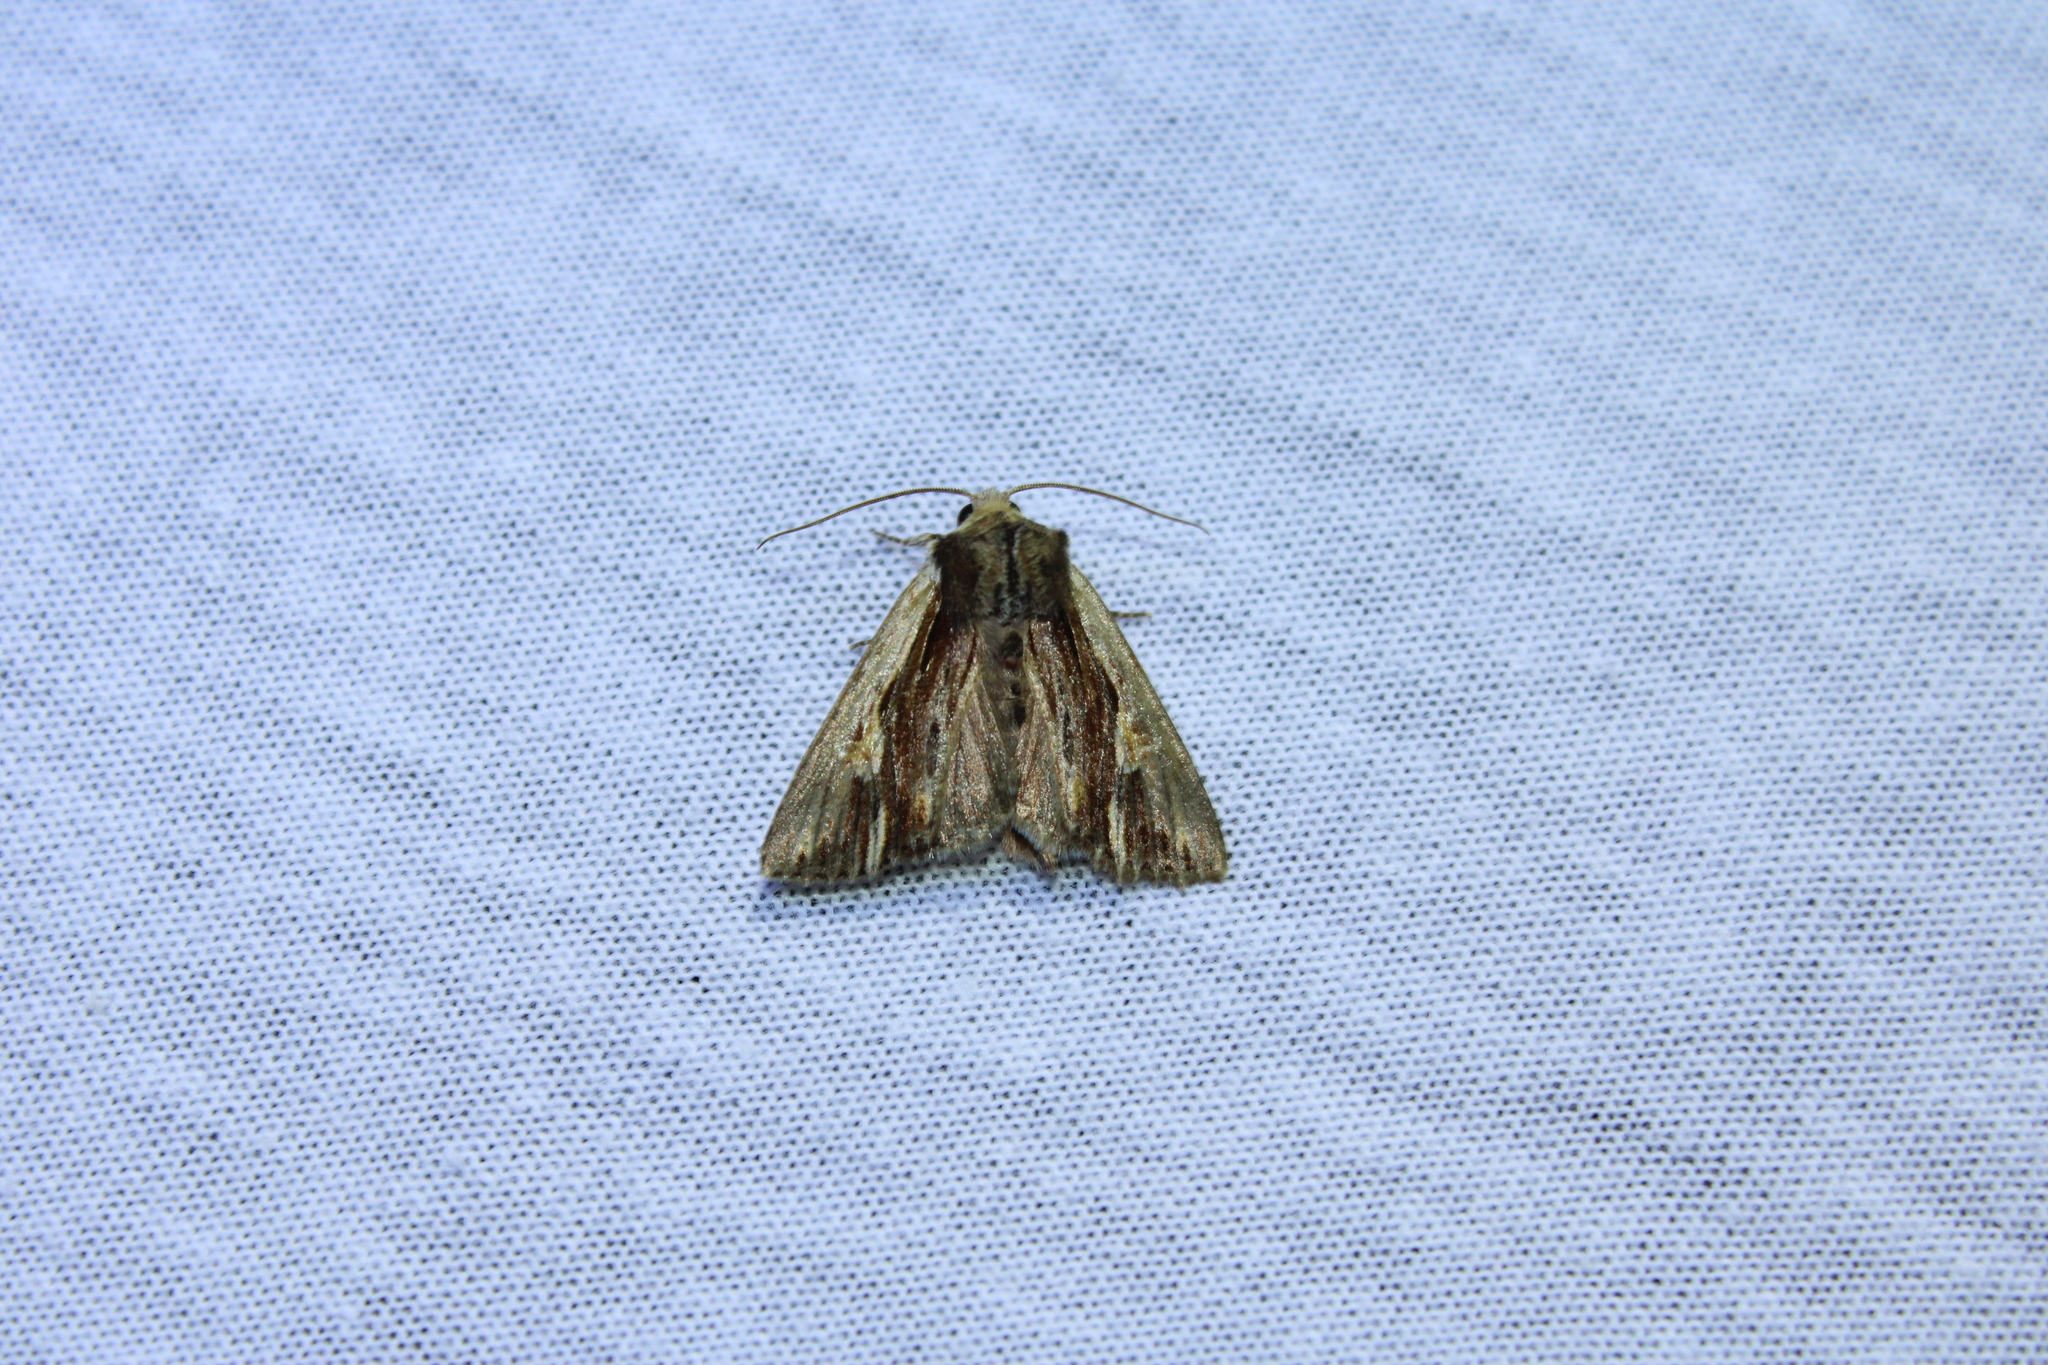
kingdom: Animalia
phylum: Arthropoda
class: Insecta
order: Lepidoptera
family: Noctuidae
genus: Achatia
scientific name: Achatia evicta
